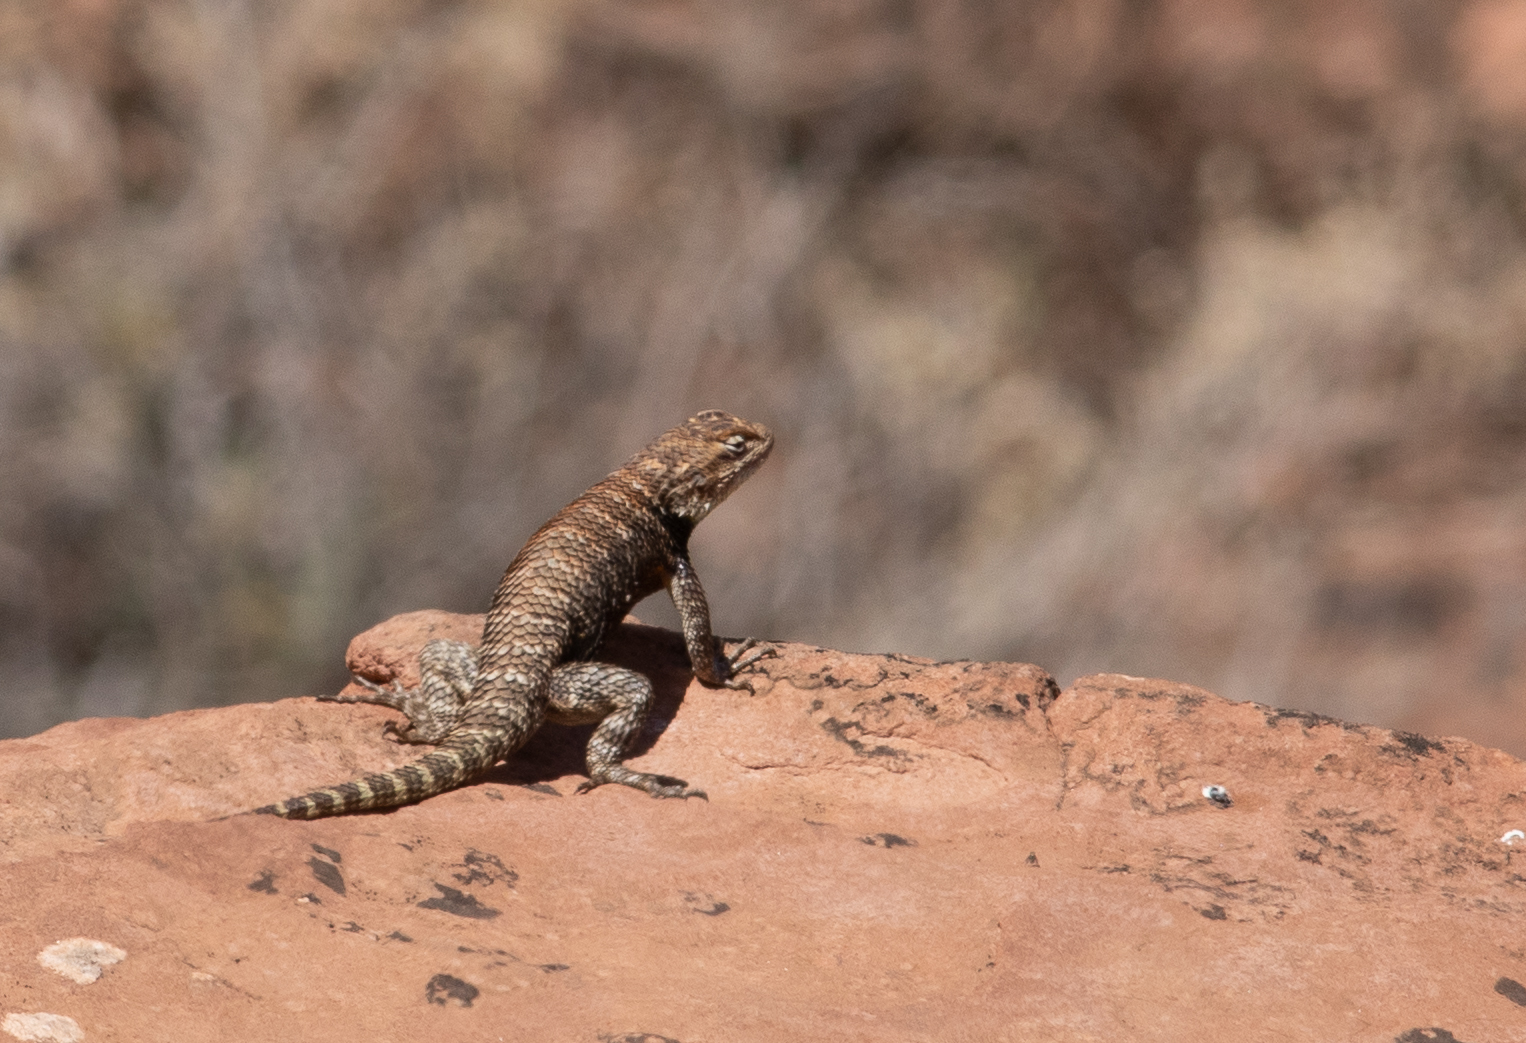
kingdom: Animalia
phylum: Chordata
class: Squamata
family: Phrynosomatidae
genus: Sceloporus
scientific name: Sceloporus magister
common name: Desert spiny lizard
